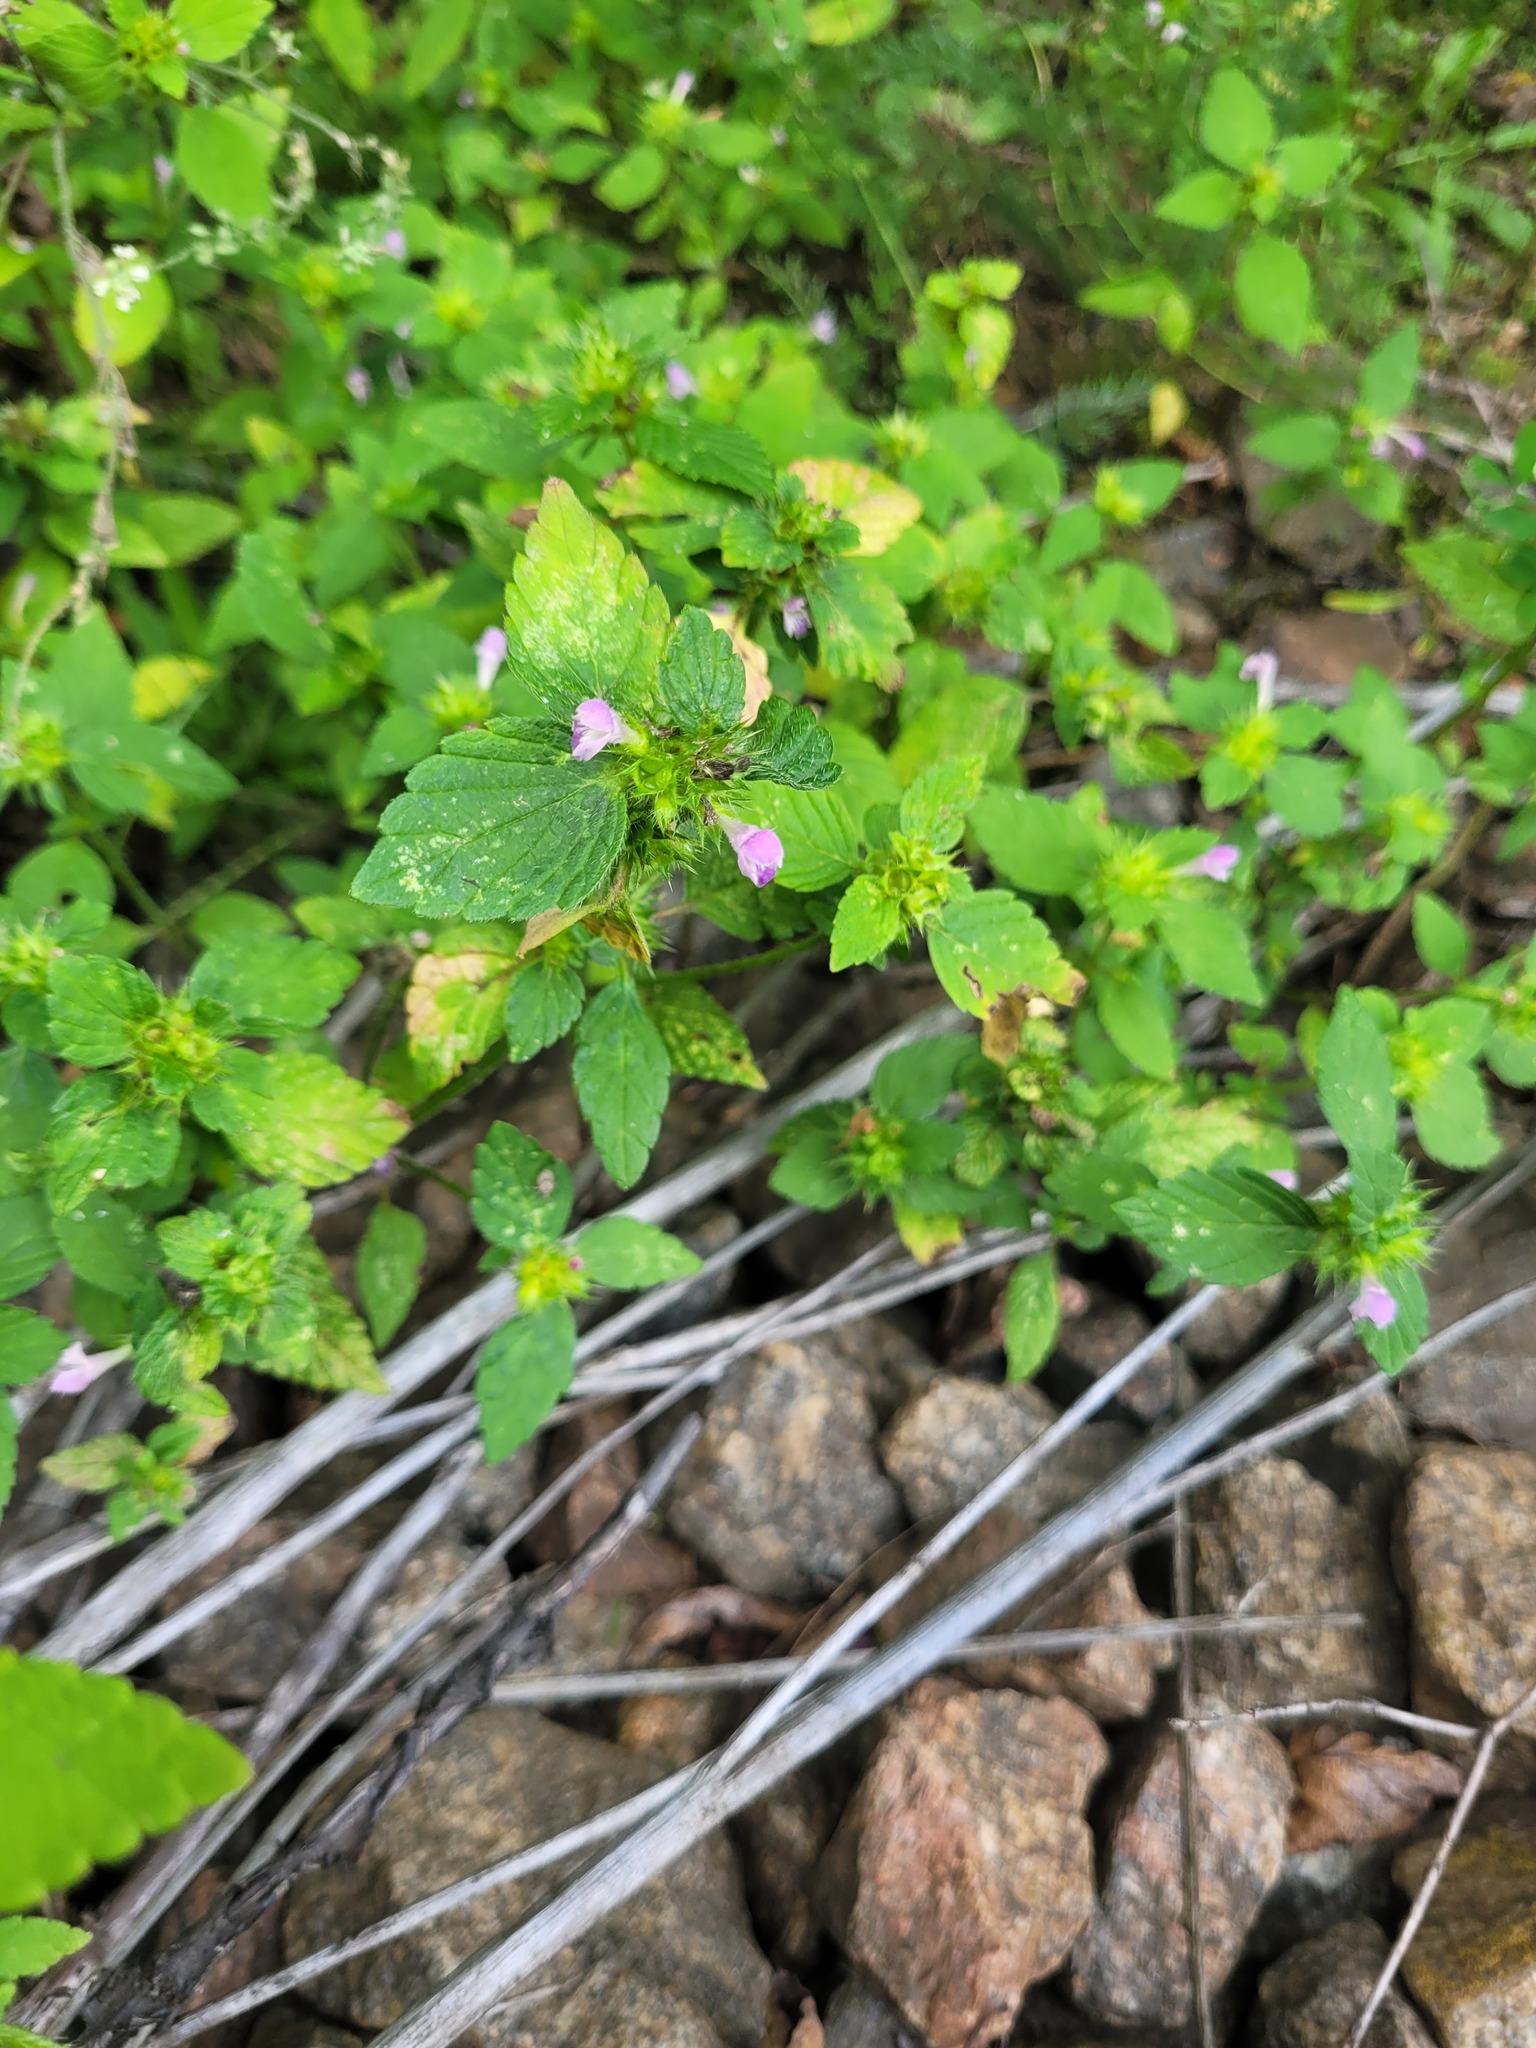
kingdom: Plantae
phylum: Tracheophyta
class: Magnoliopsida
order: Lamiales
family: Lamiaceae
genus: Galeopsis
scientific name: Galeopsis bifida
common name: Bifid hemp-nettle
